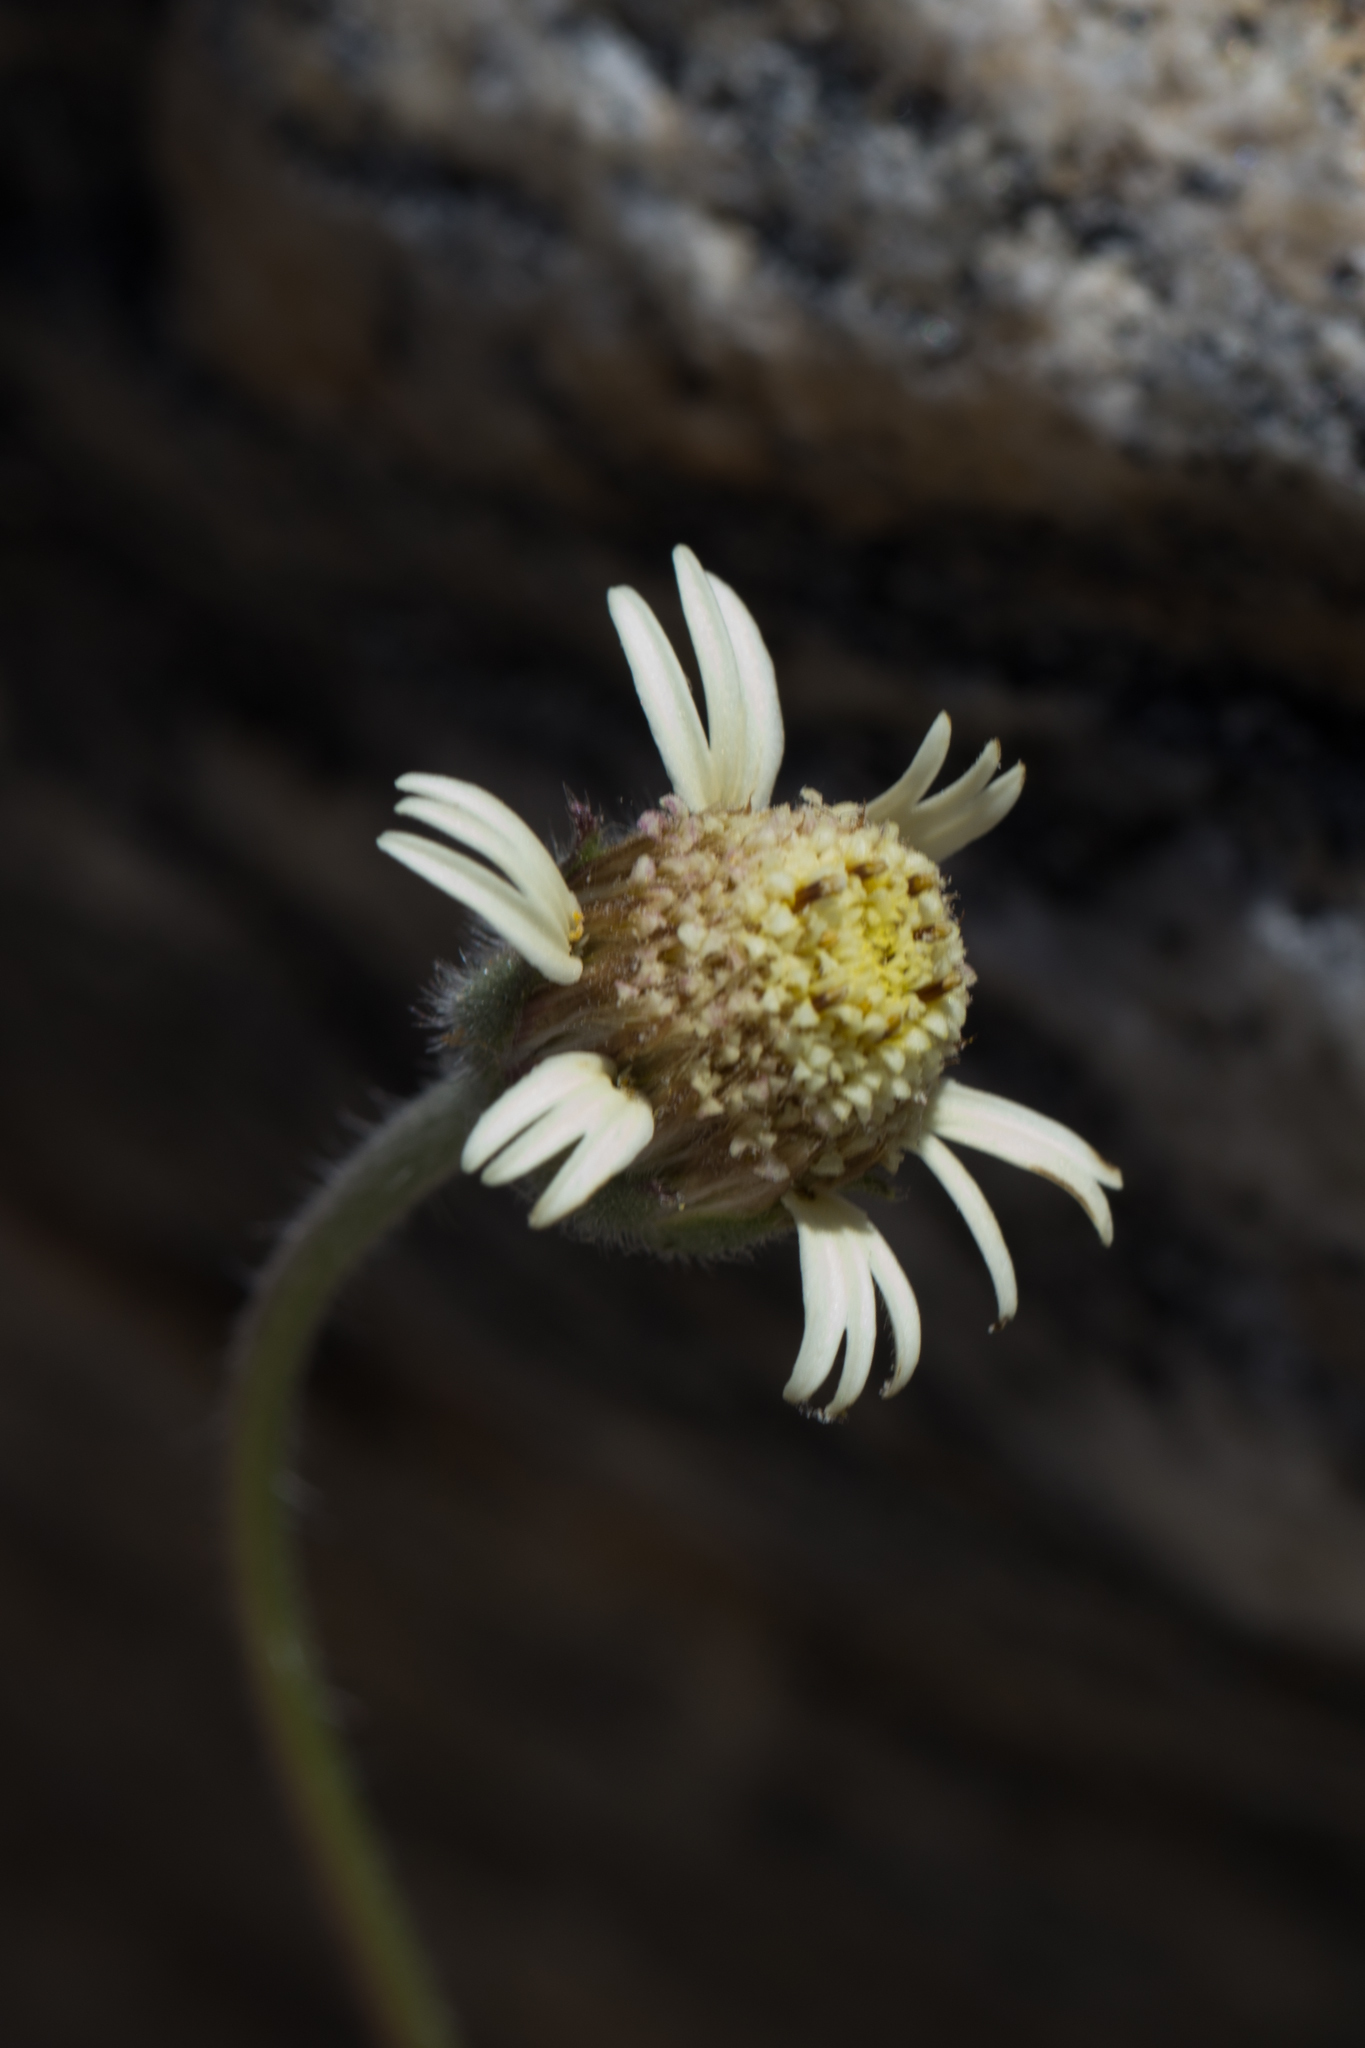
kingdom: Plantae
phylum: Tracheophyta
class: Magnoliopsida
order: Asterales
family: Asteraceae
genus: Tridax
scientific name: Tridax procumbens
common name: Coatbuttons
